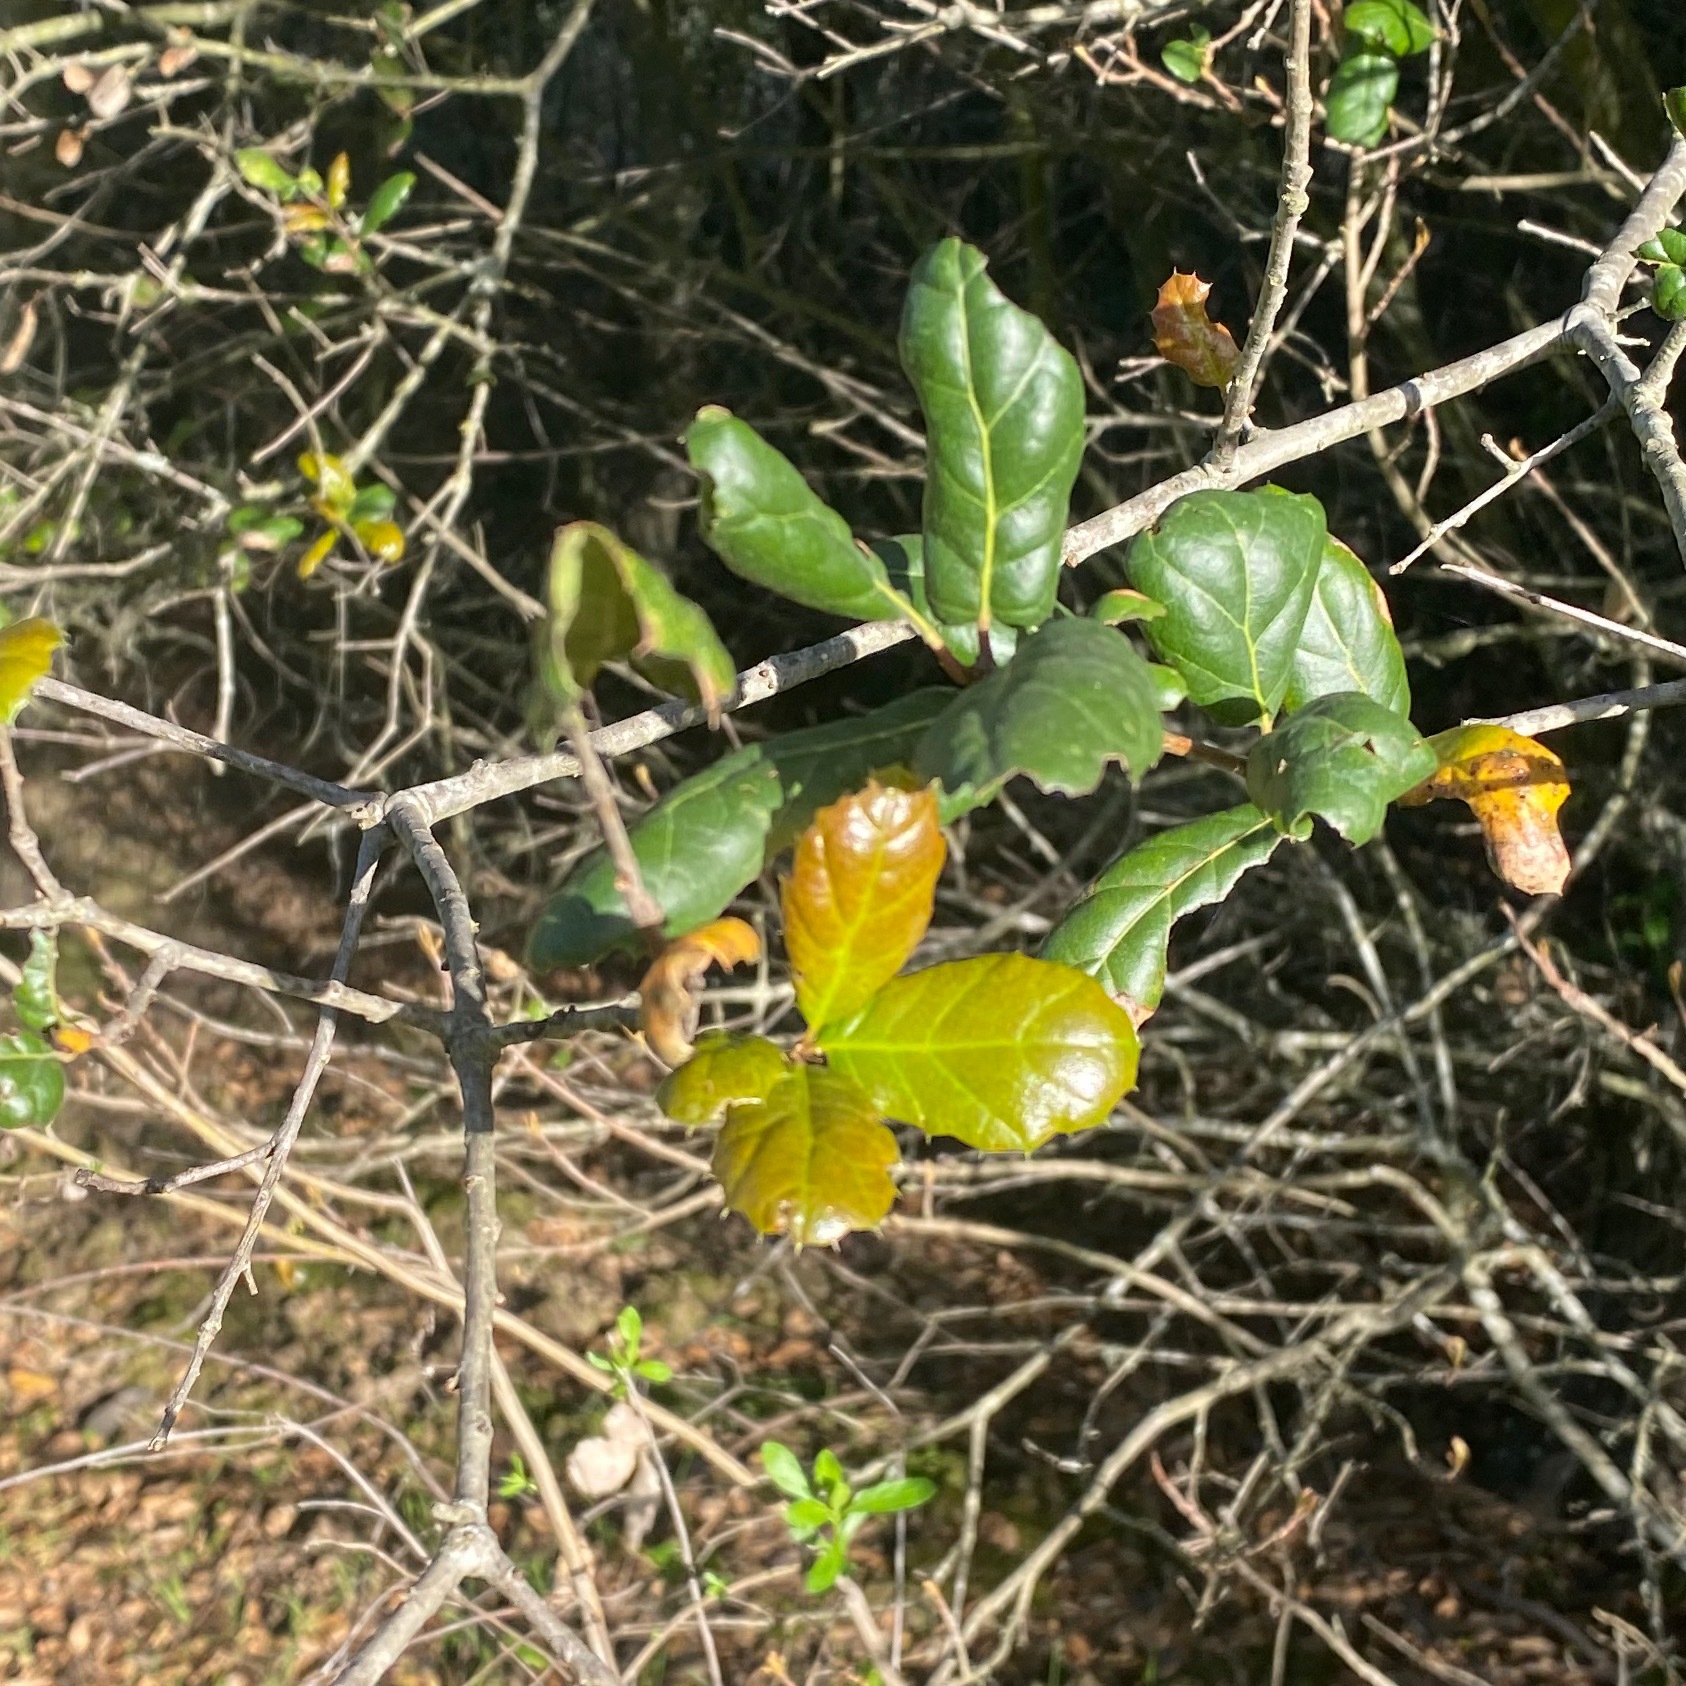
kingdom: Plantae
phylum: Tracheophyta
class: Magnoliopsida
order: Fagales
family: Fagaceae
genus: Quercus
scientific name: Quercus agrifolia
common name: California live oak
